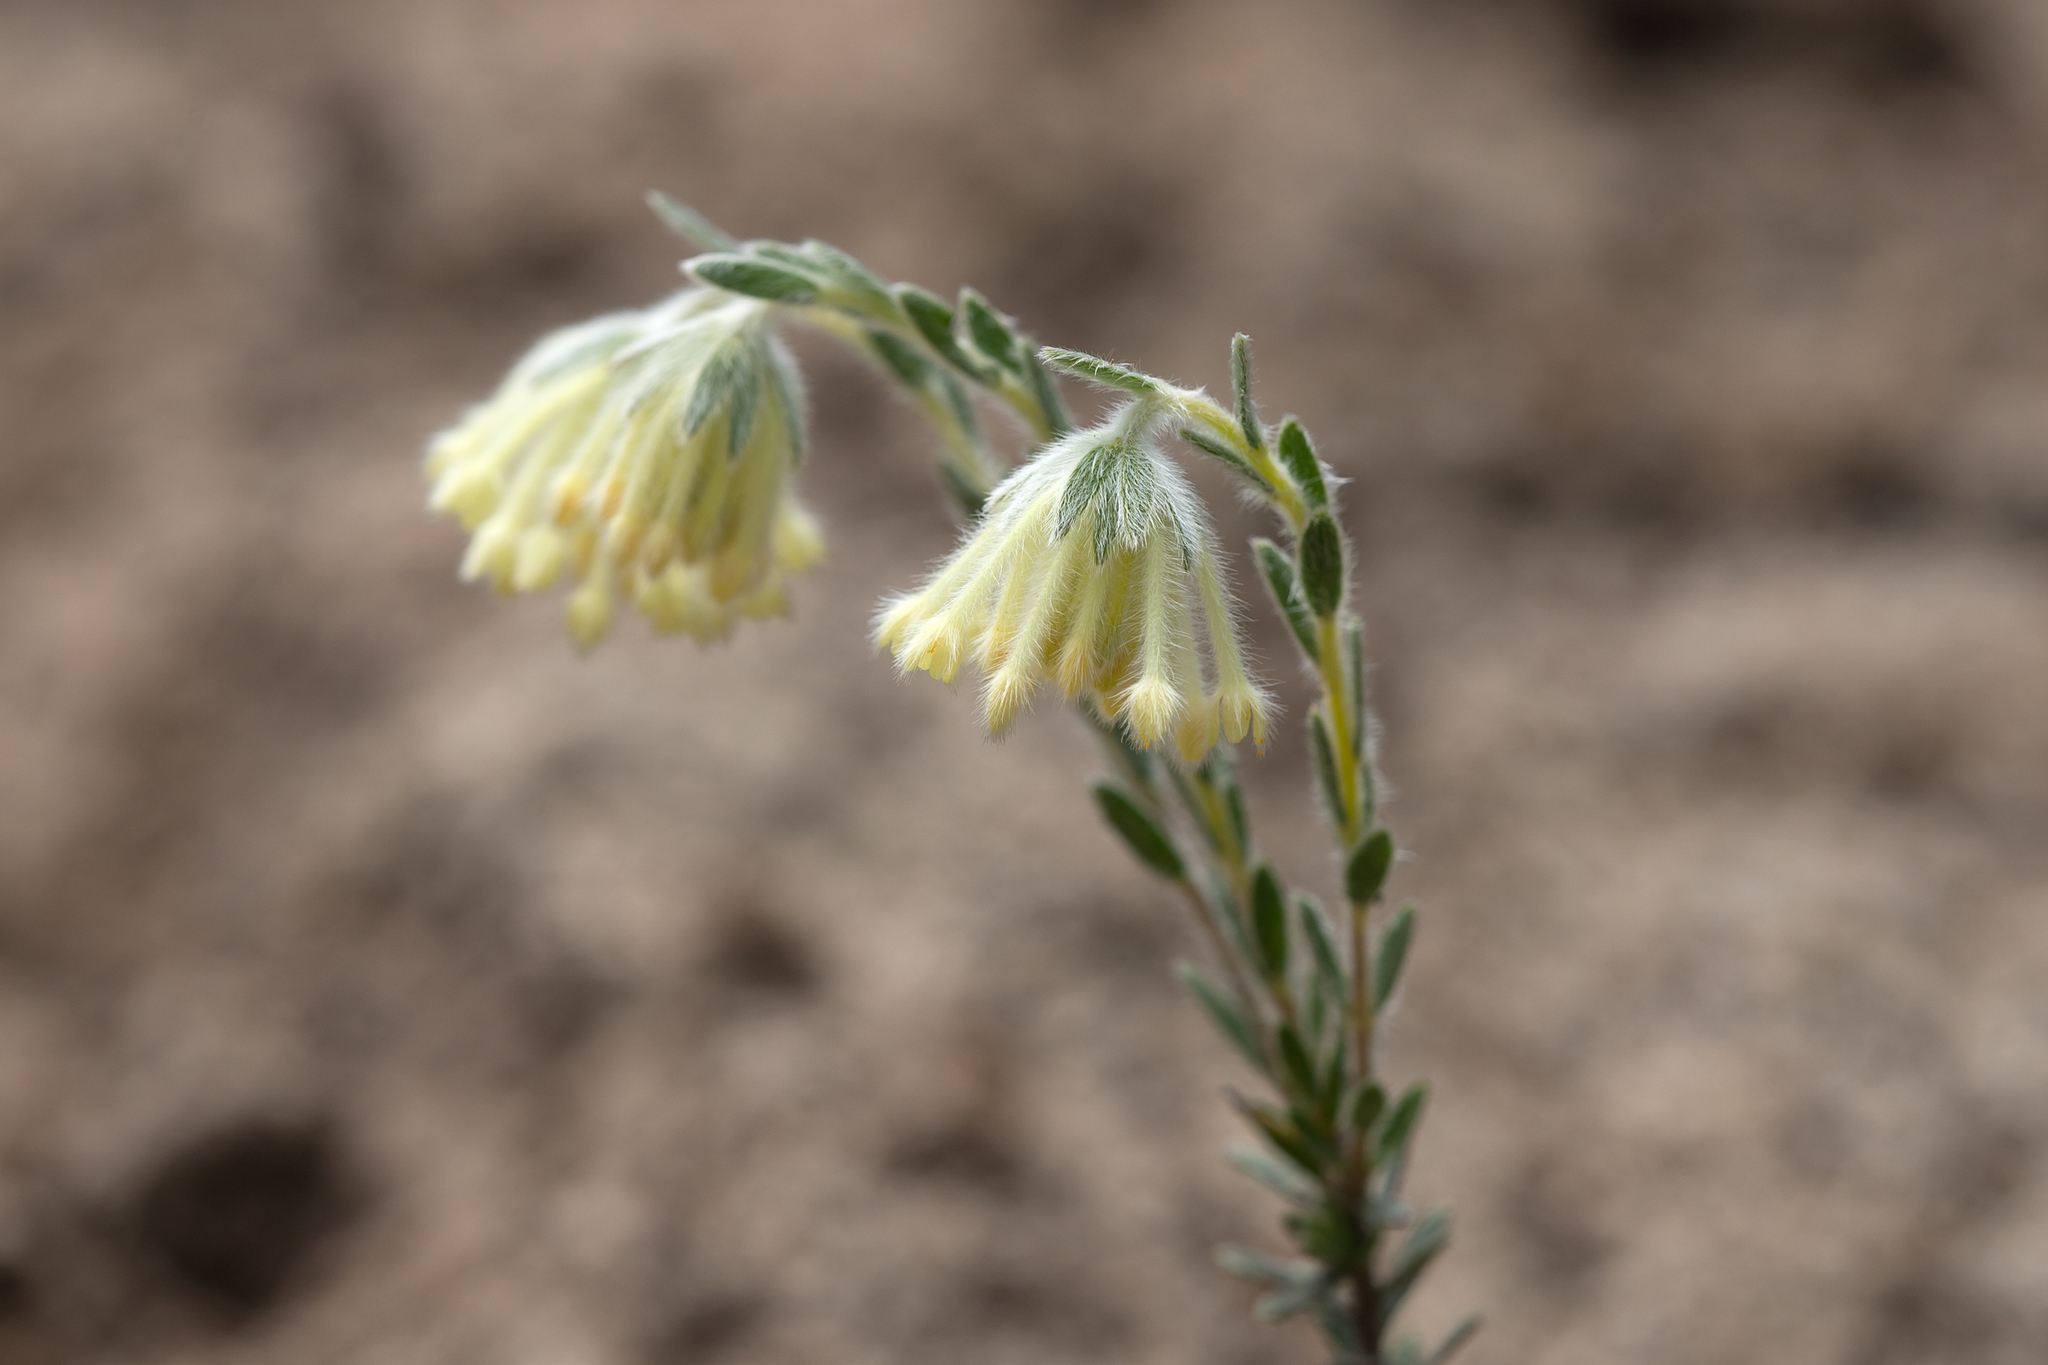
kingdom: Plantae
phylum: Tracheophyta
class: Magnoliopsida
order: Malvales
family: Thymelaeaceae
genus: Pimelea
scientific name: Pimelea octophylla
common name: Woolly riceflower
